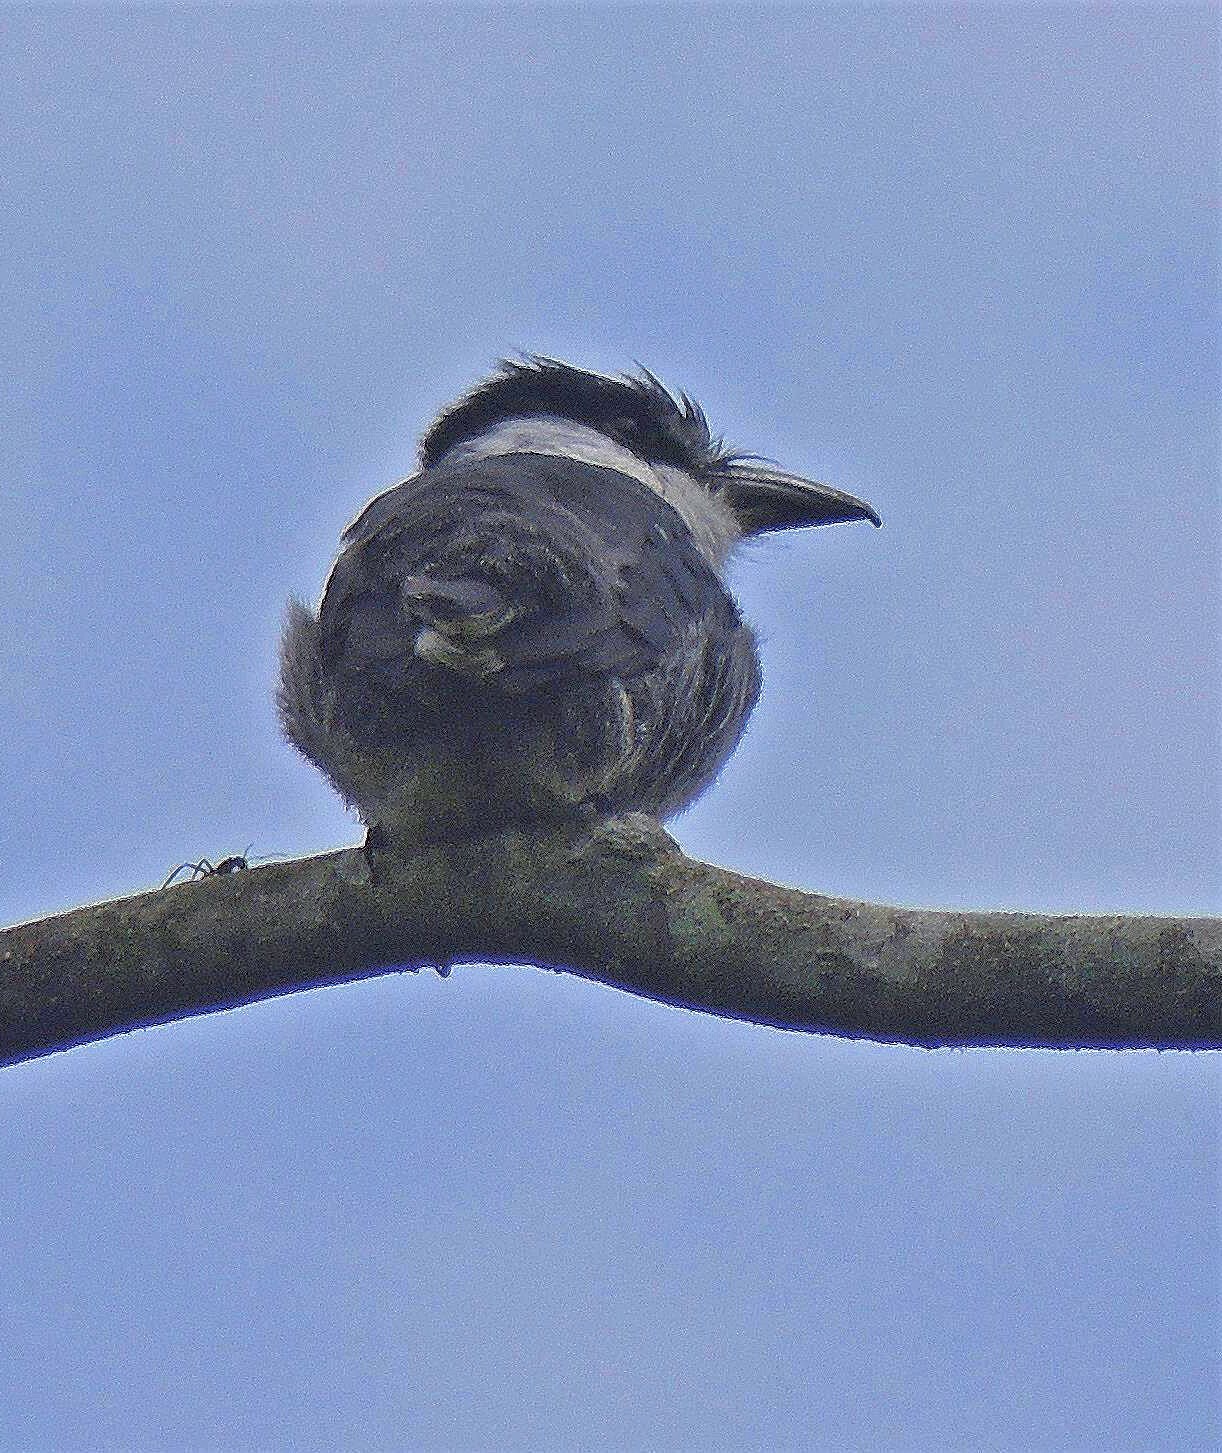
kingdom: Animalia
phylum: Chordata
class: Aves
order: Piciformes
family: Bucconidae
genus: Notharchus
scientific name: Notharchus swainsoni
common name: Buff-bellied puffbird
